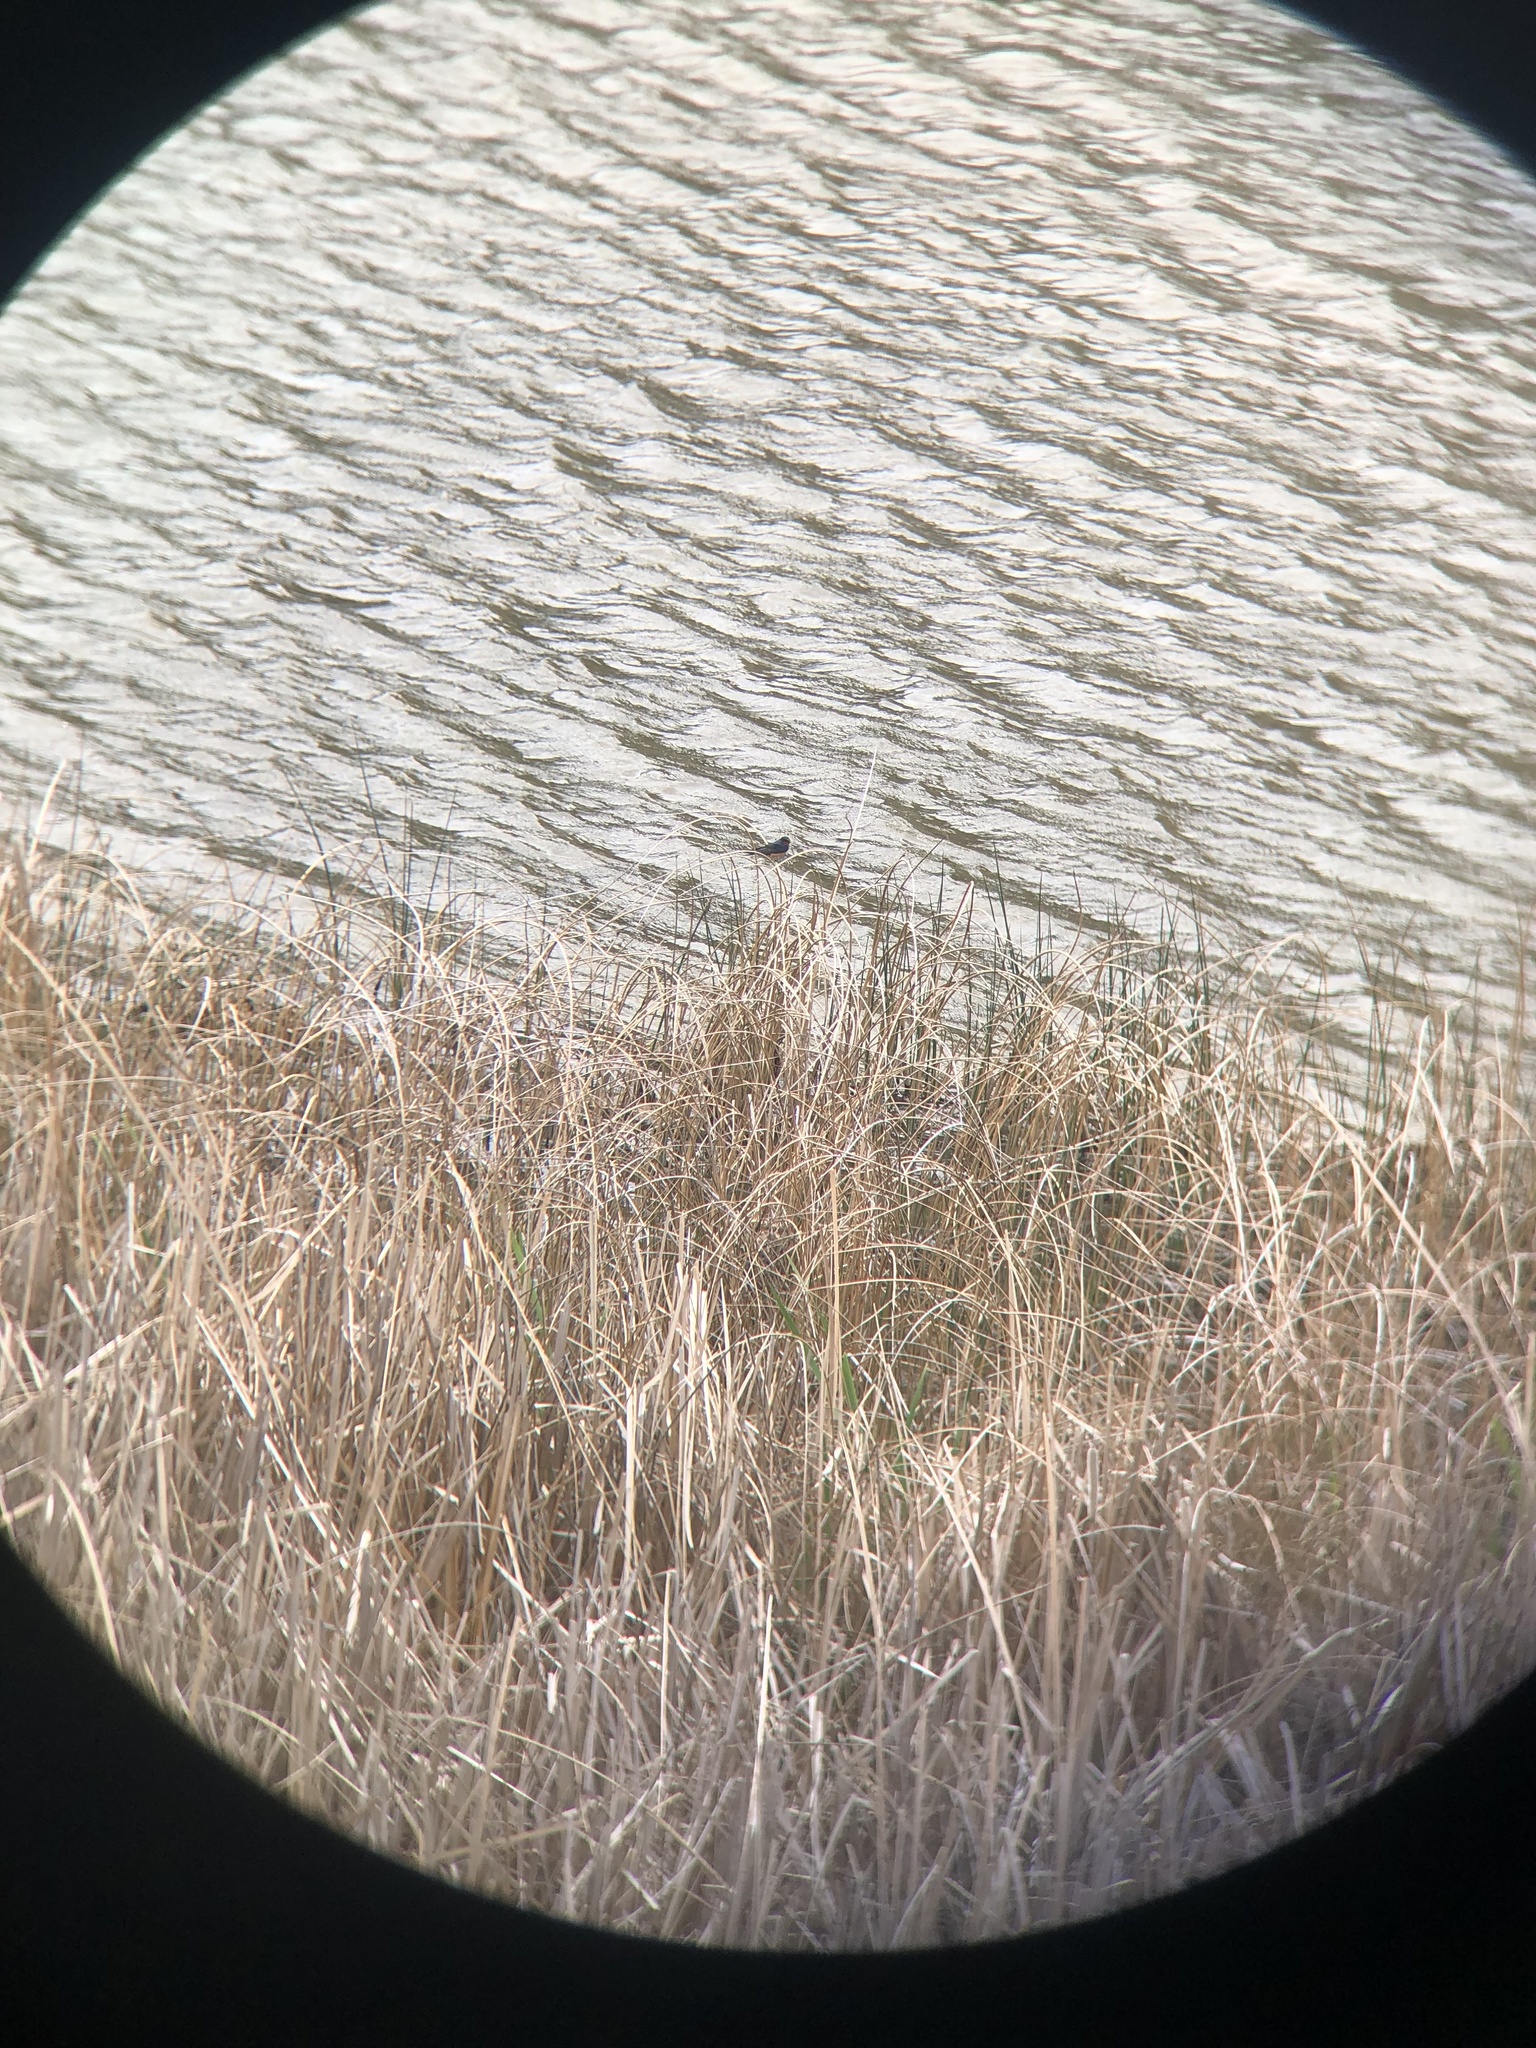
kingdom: Animalia
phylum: Chordata
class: Aves
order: Passeriformes
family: Hirundinidae
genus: Hirundo
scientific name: Hirundo rustica
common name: Barn swallow
